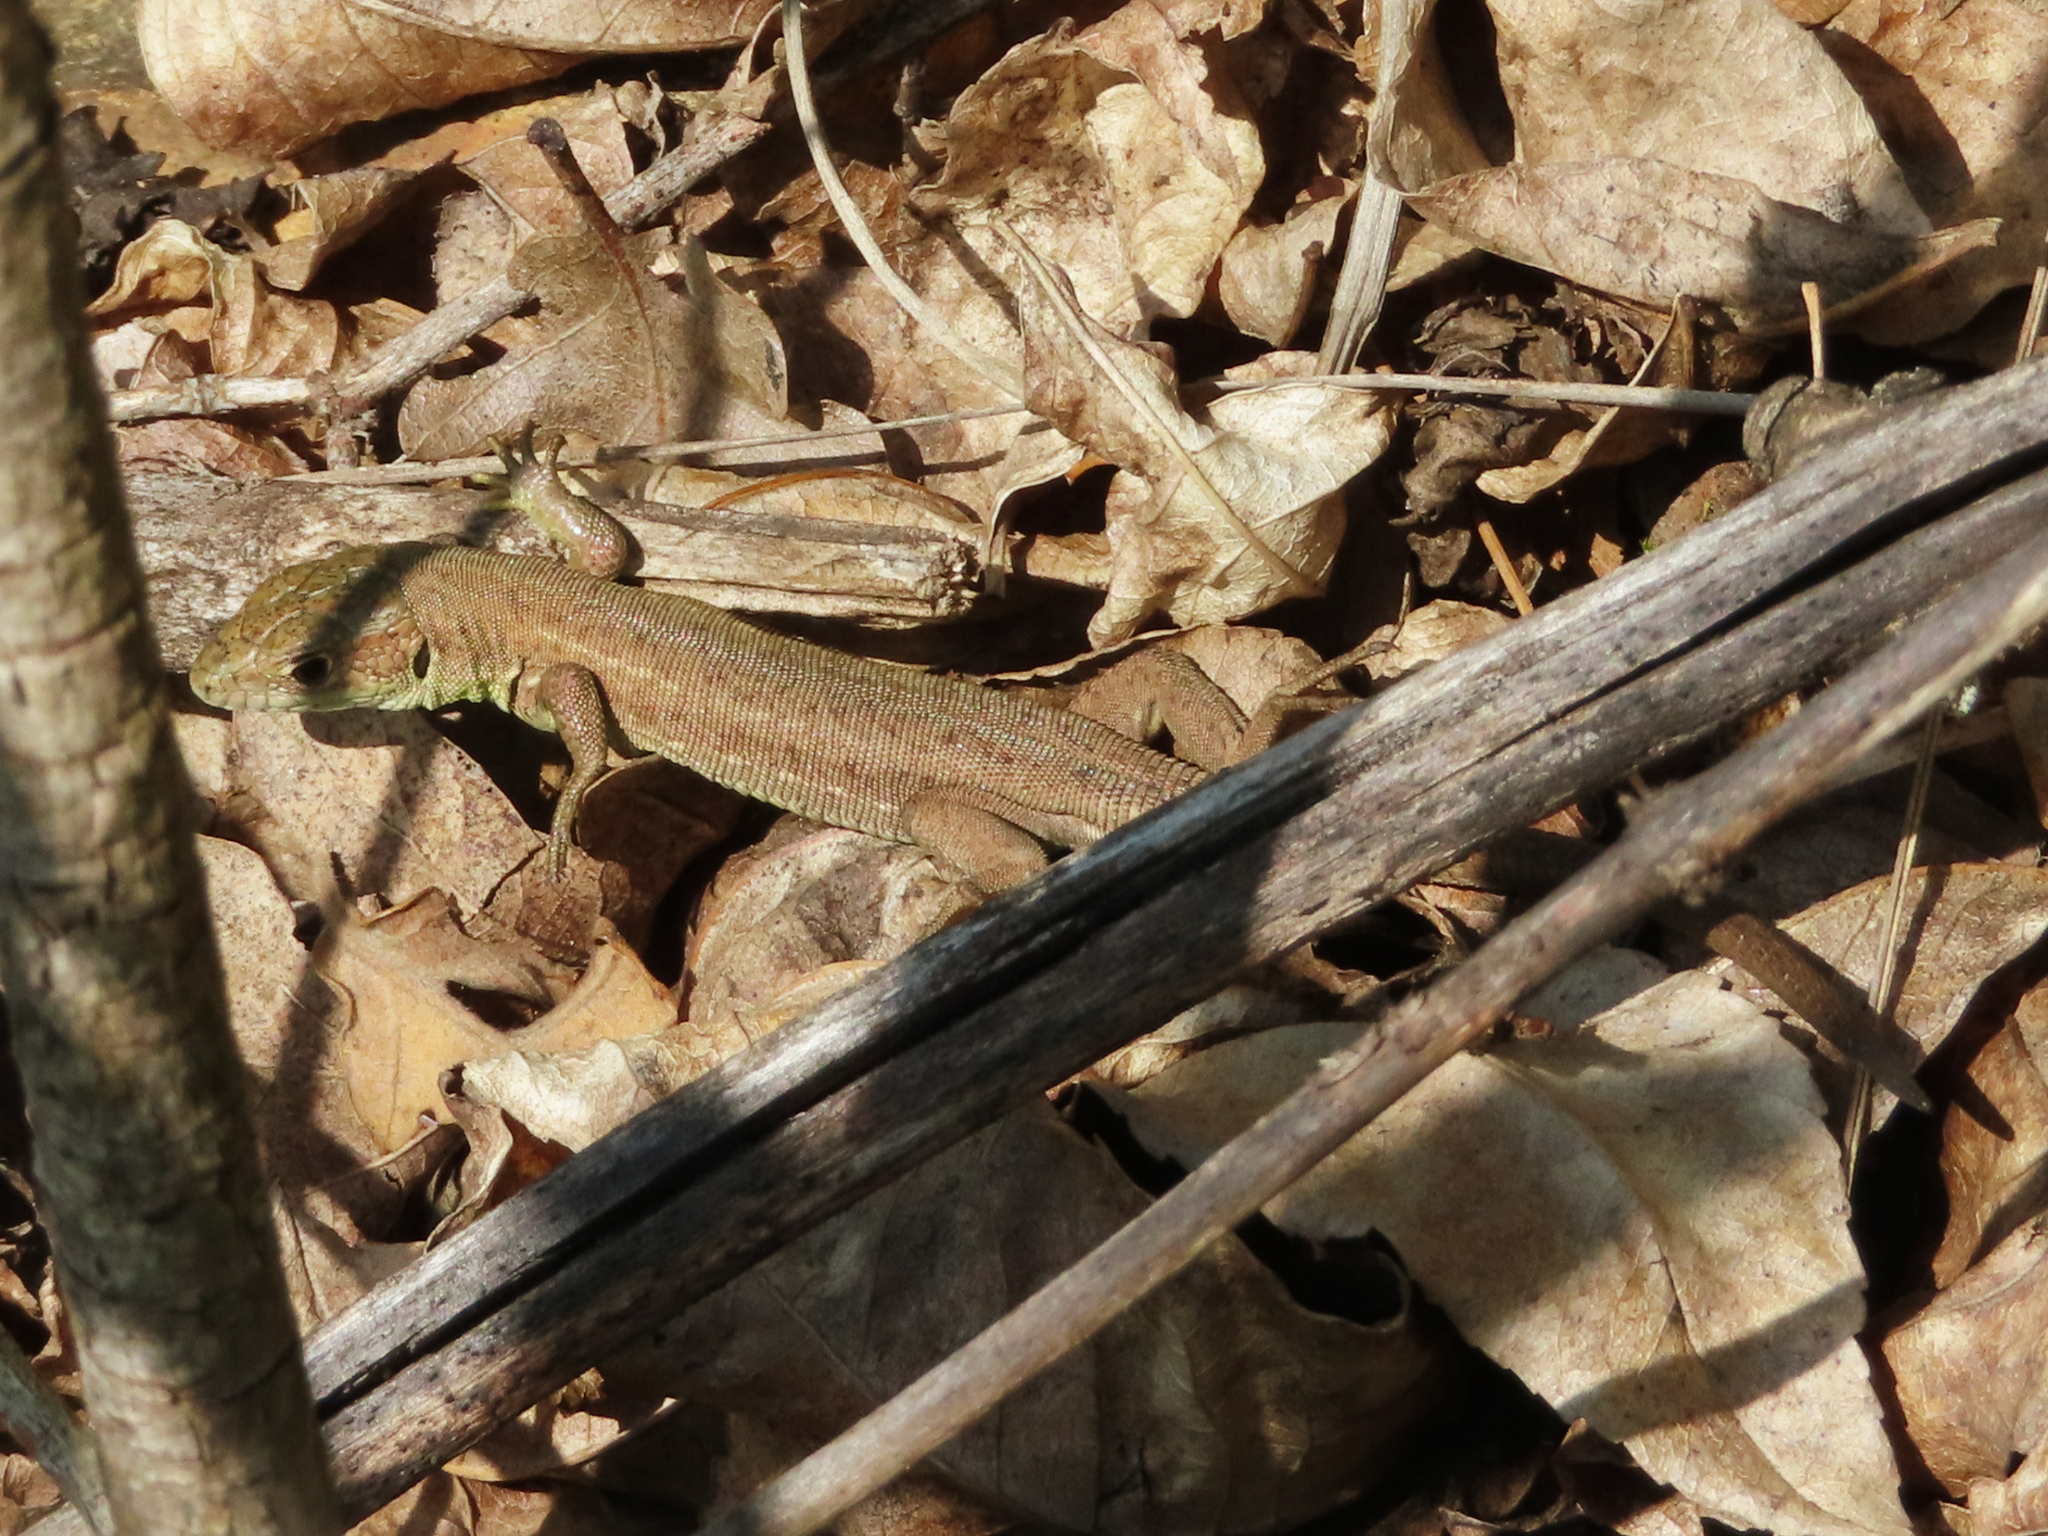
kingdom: Animalia
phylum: Chordata
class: Squamata
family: Lacertidae
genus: Lacerta
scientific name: Lacerta viridis
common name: European green lizard
